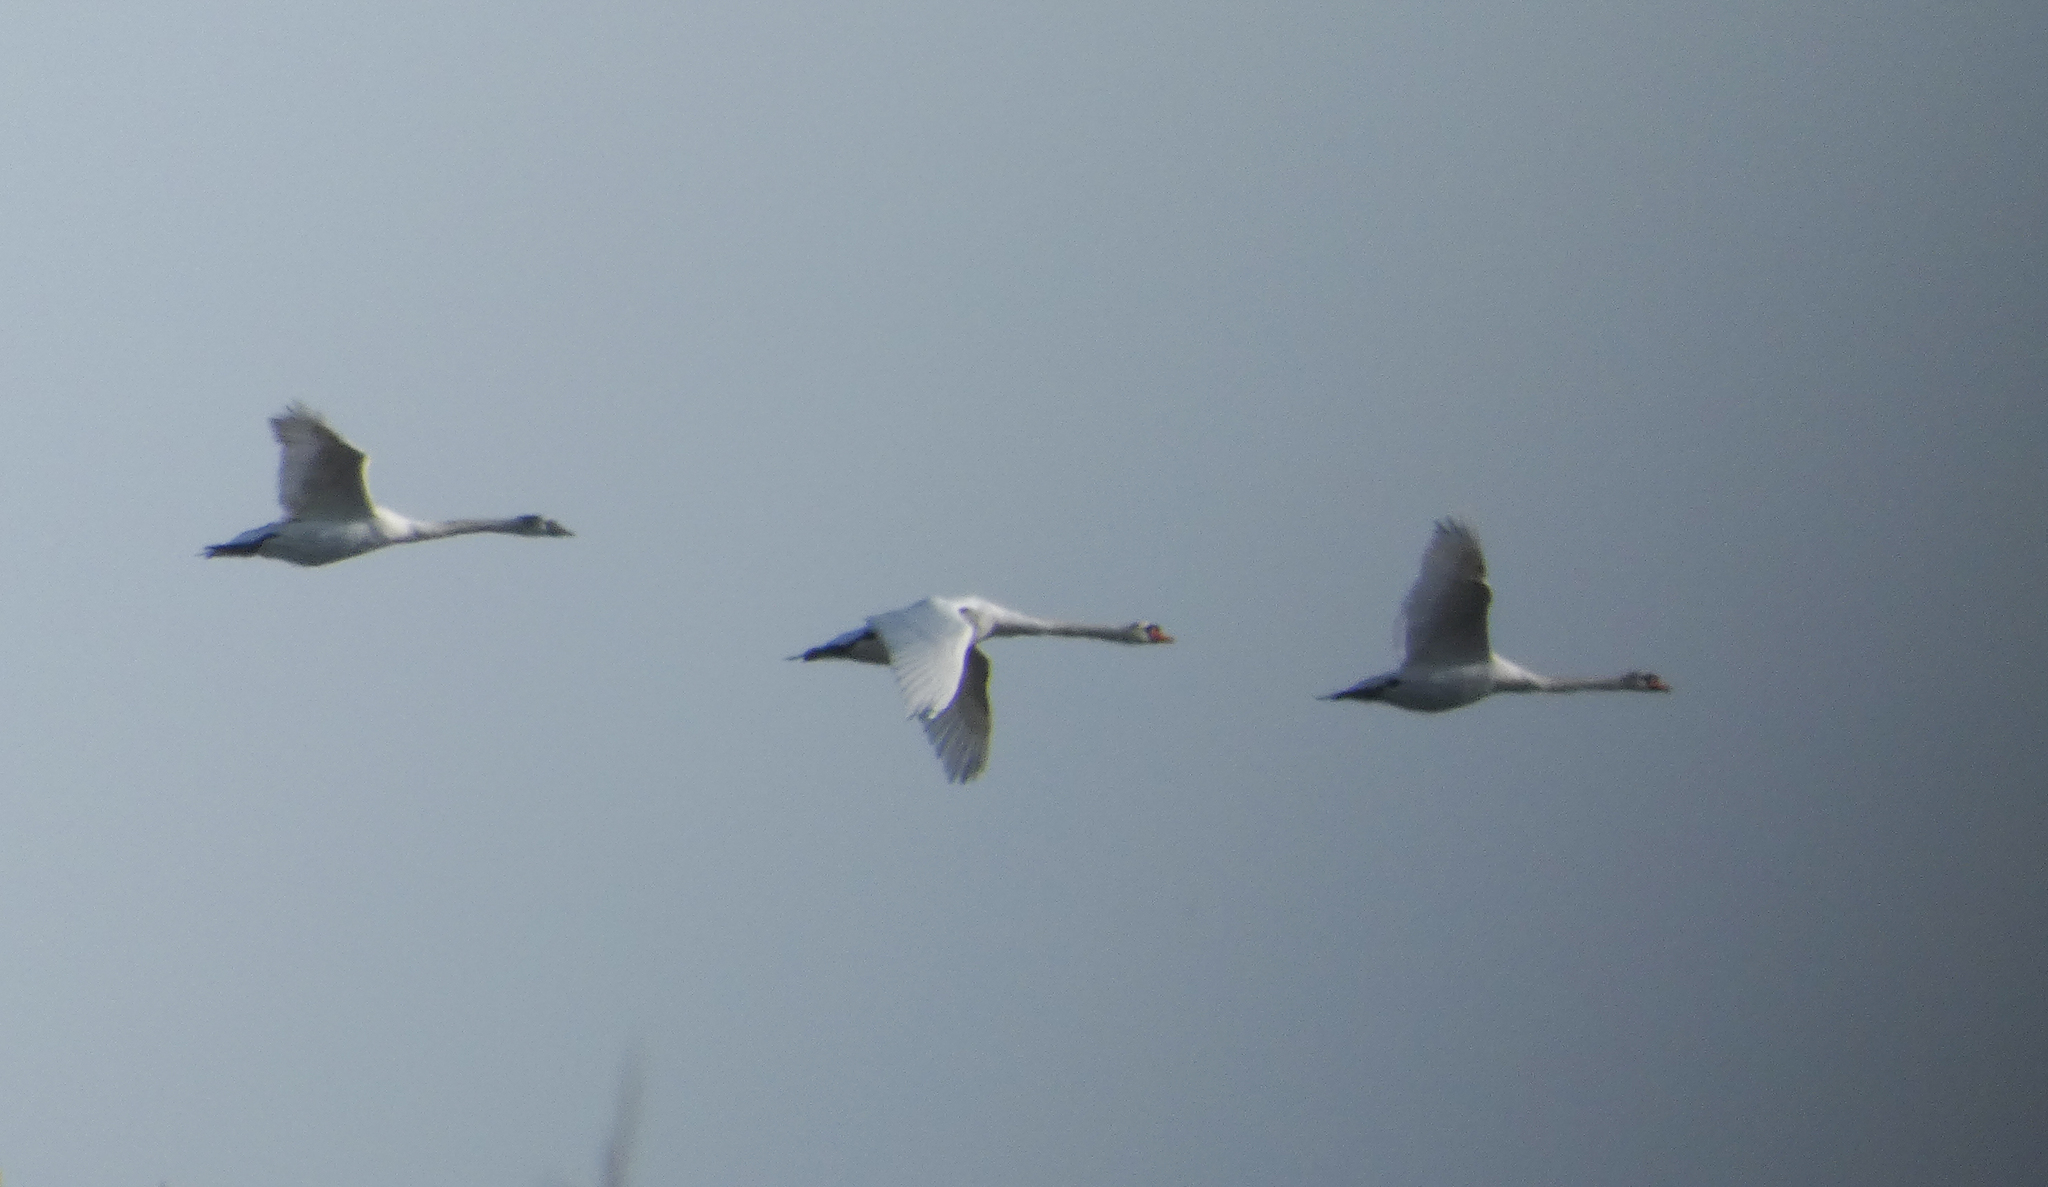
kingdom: Animalia
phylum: Chordata
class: Aves
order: Anseriformes
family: Anatidae
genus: Cygnus
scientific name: Cygnus olor
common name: Mute swan
